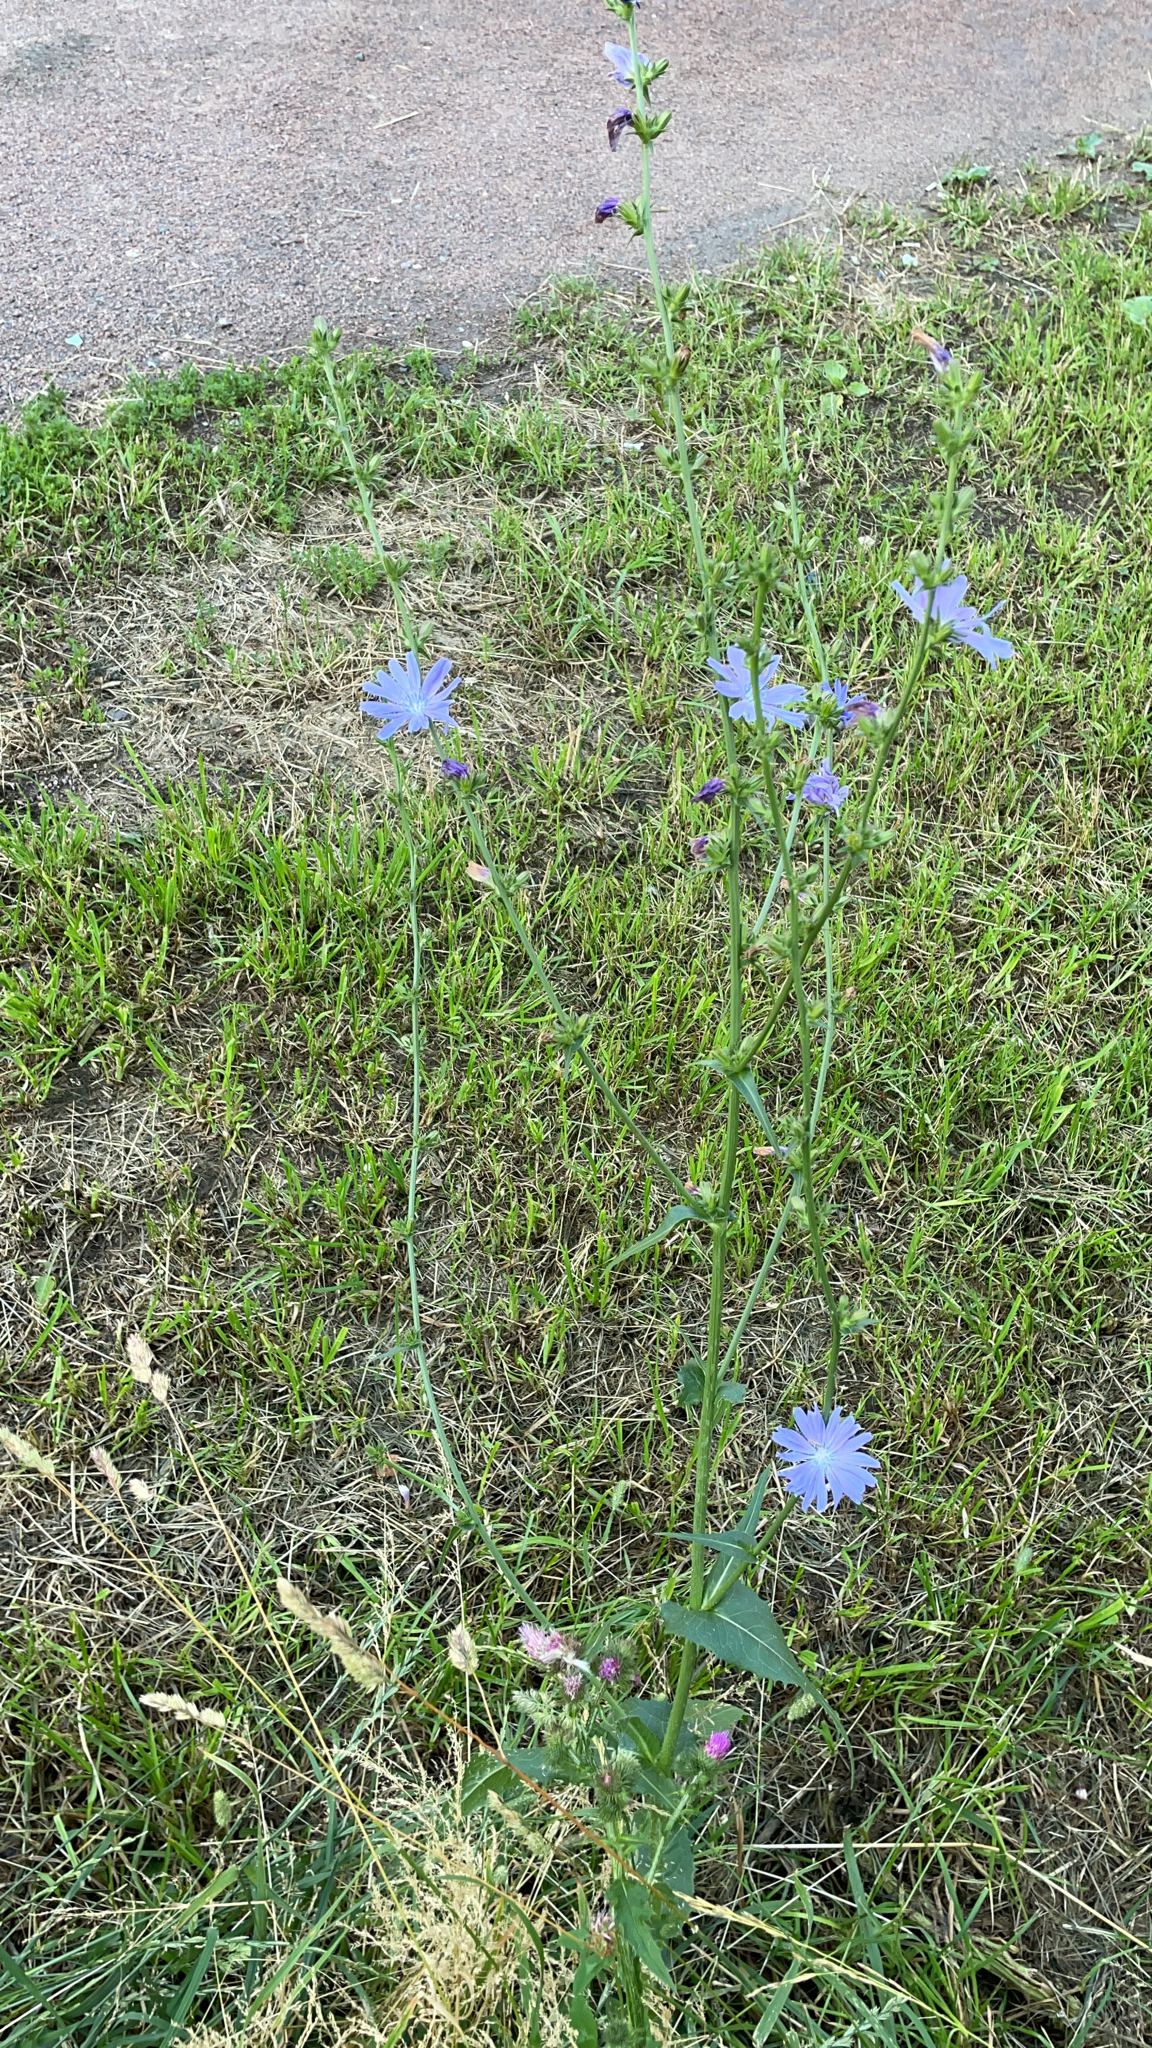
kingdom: Plantae
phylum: Tracheophyta
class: Magnoliopsida
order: Asterales
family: Asteraceae
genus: Cichorium
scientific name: Cichorium intybus
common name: Chicory
